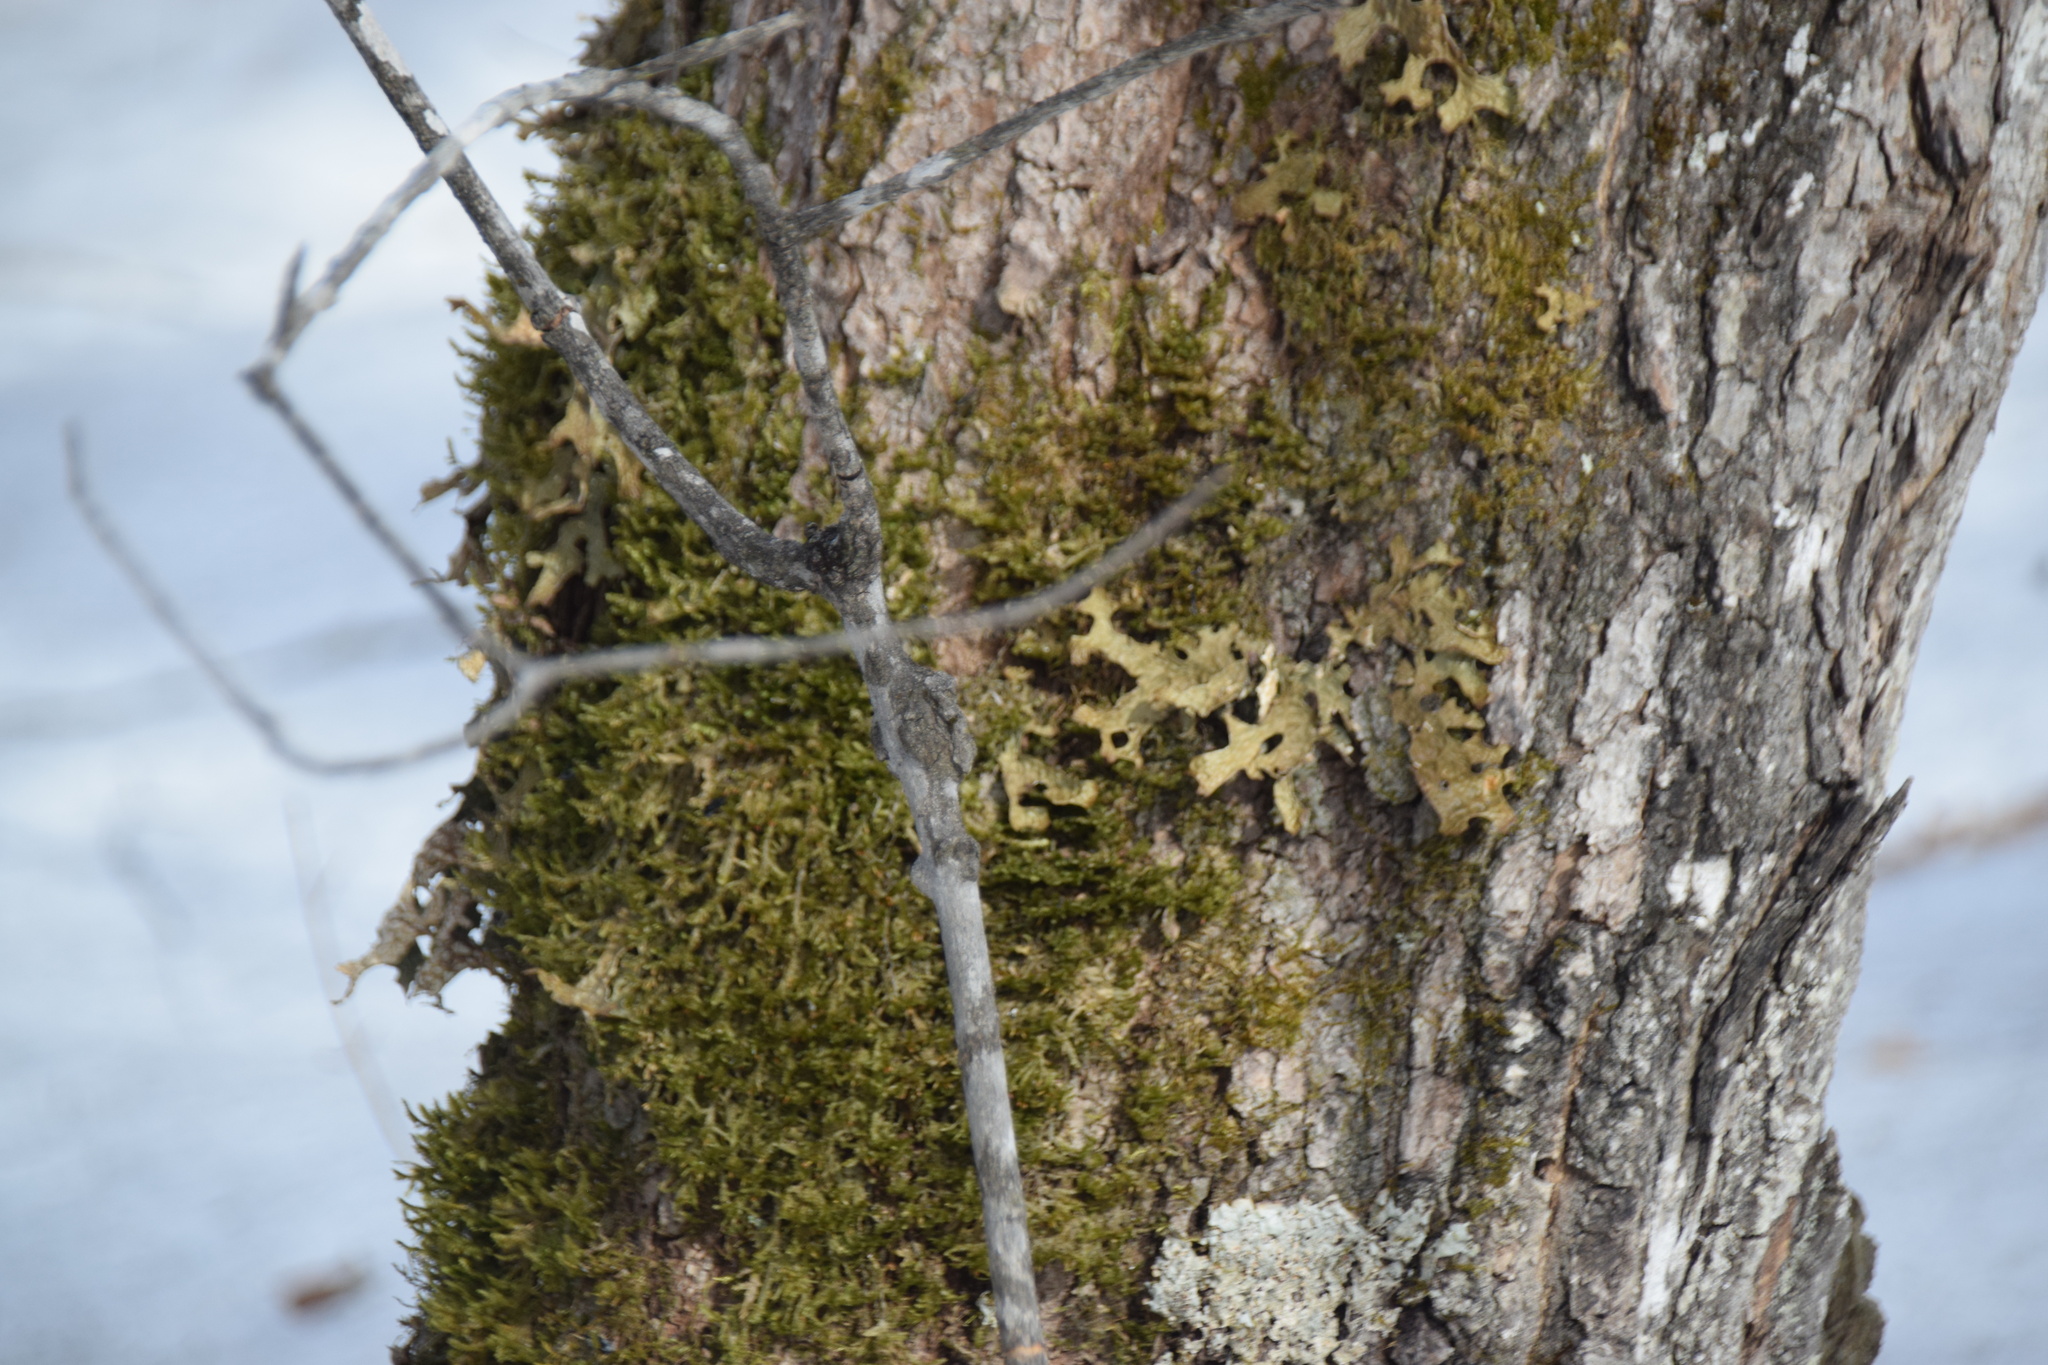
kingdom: Fungi
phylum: Ascomycota
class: Lecanoromycetes
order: Peltigerales
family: Lobariaceae
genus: Lobaria
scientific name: Lobaria pulmonaria
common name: Lungwort
